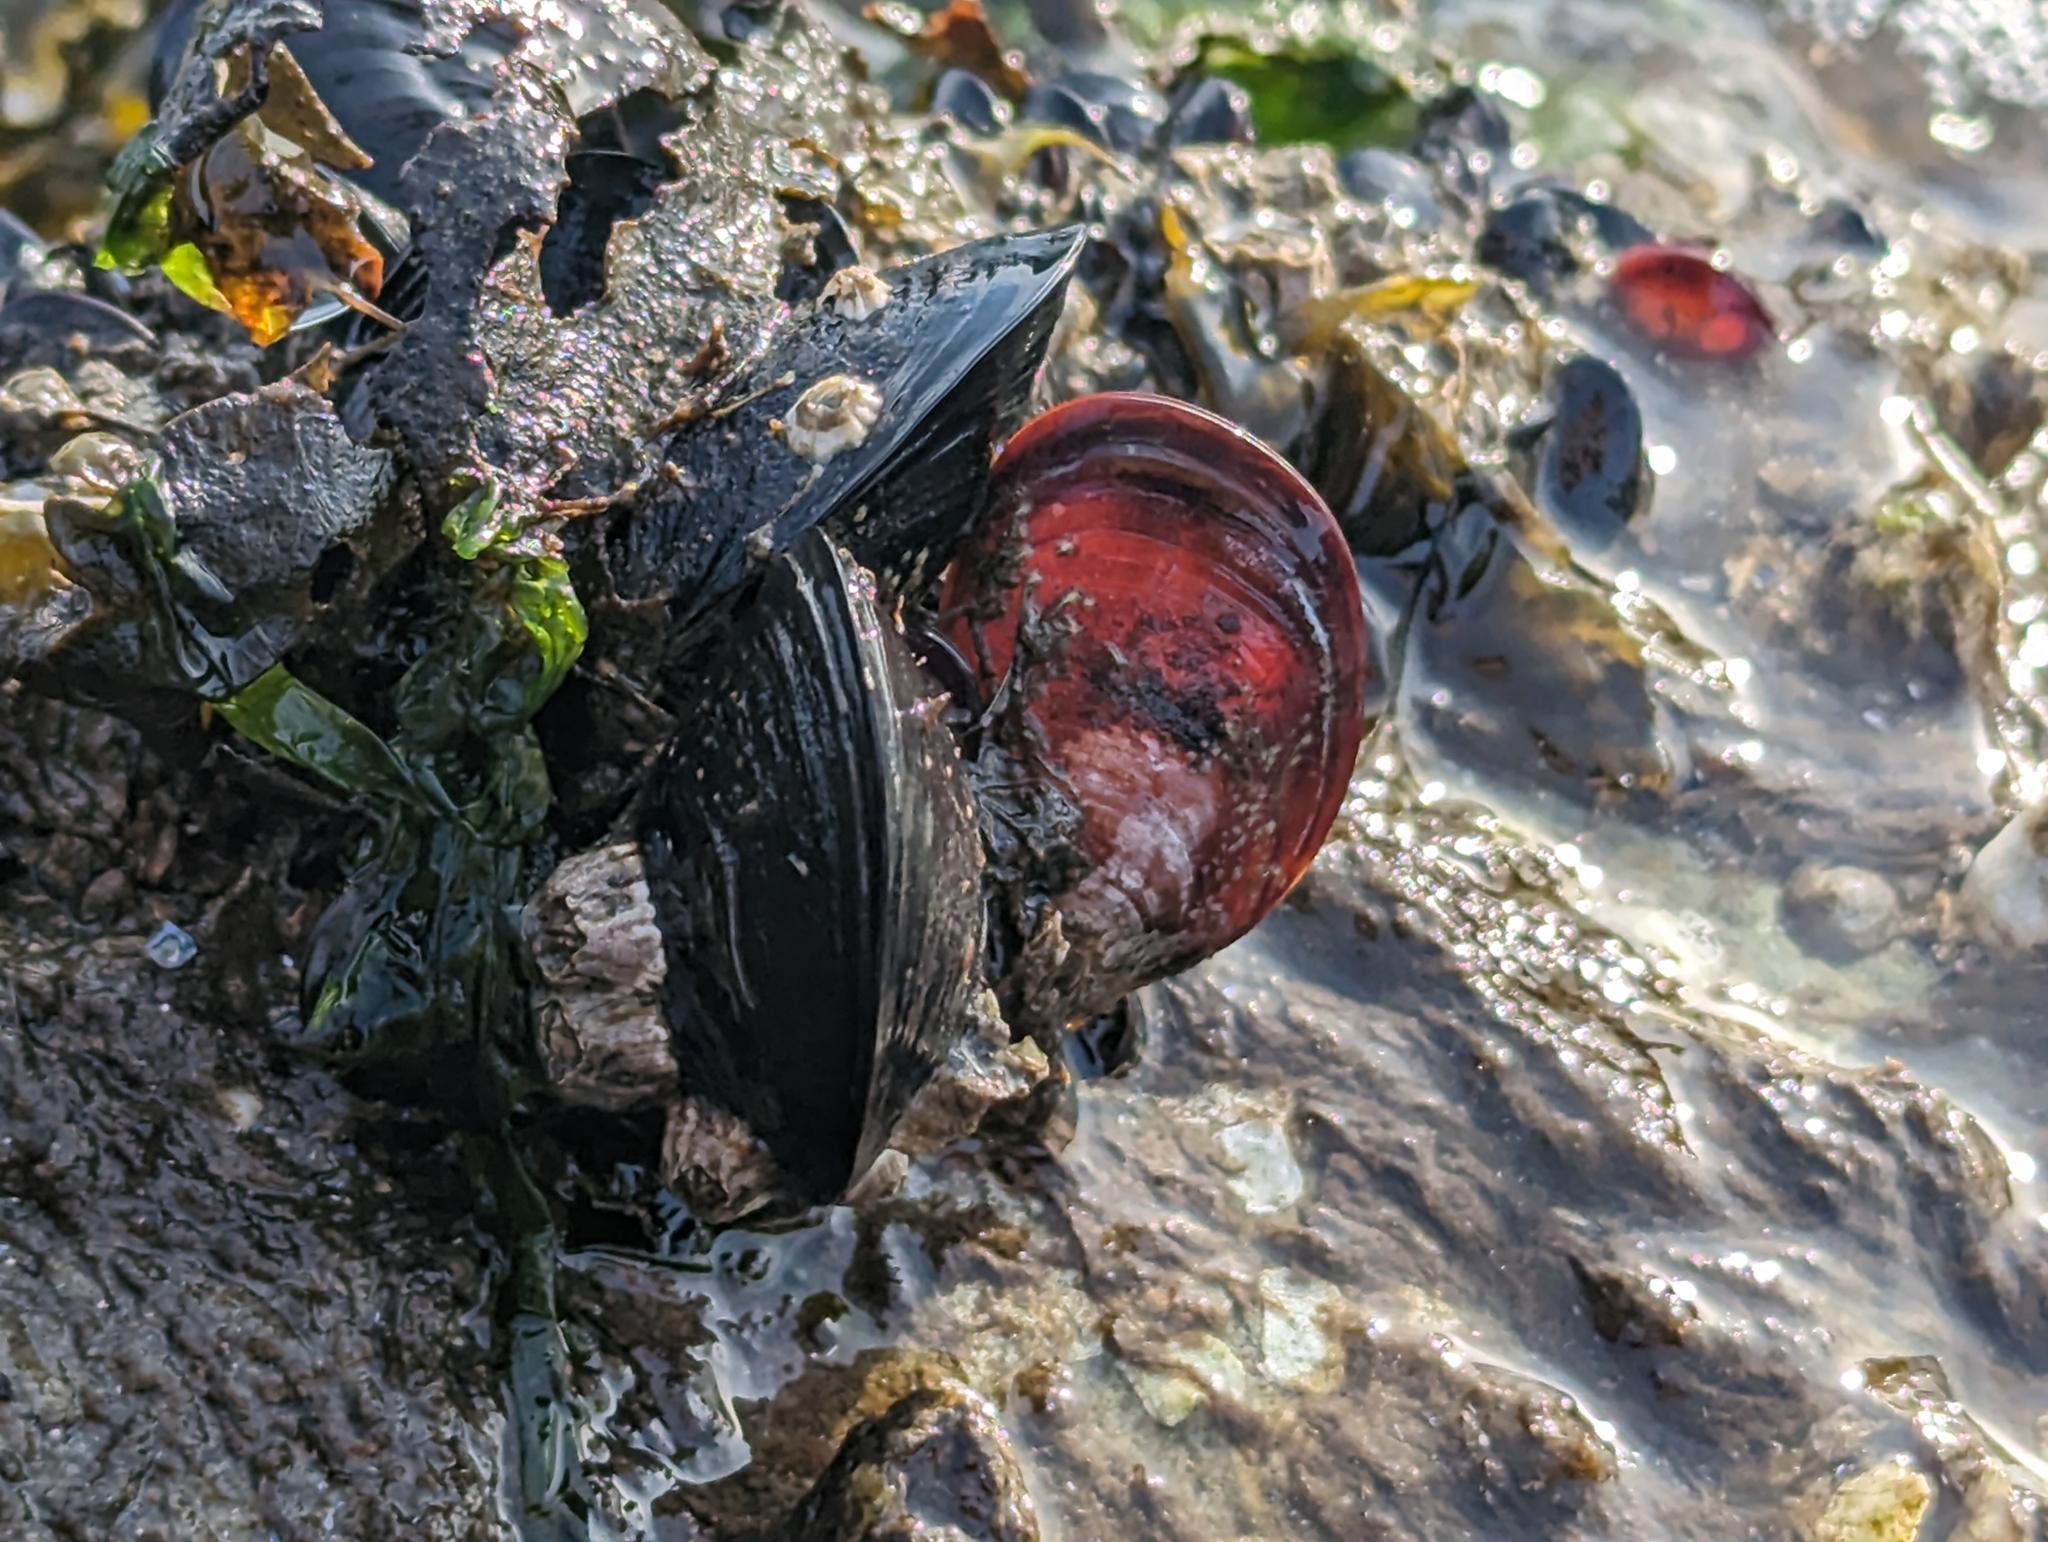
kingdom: Animalia
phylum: Mollusca
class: Bivalvia
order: Mytilida
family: Mytilidae
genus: Mytilus
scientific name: Mytilus
